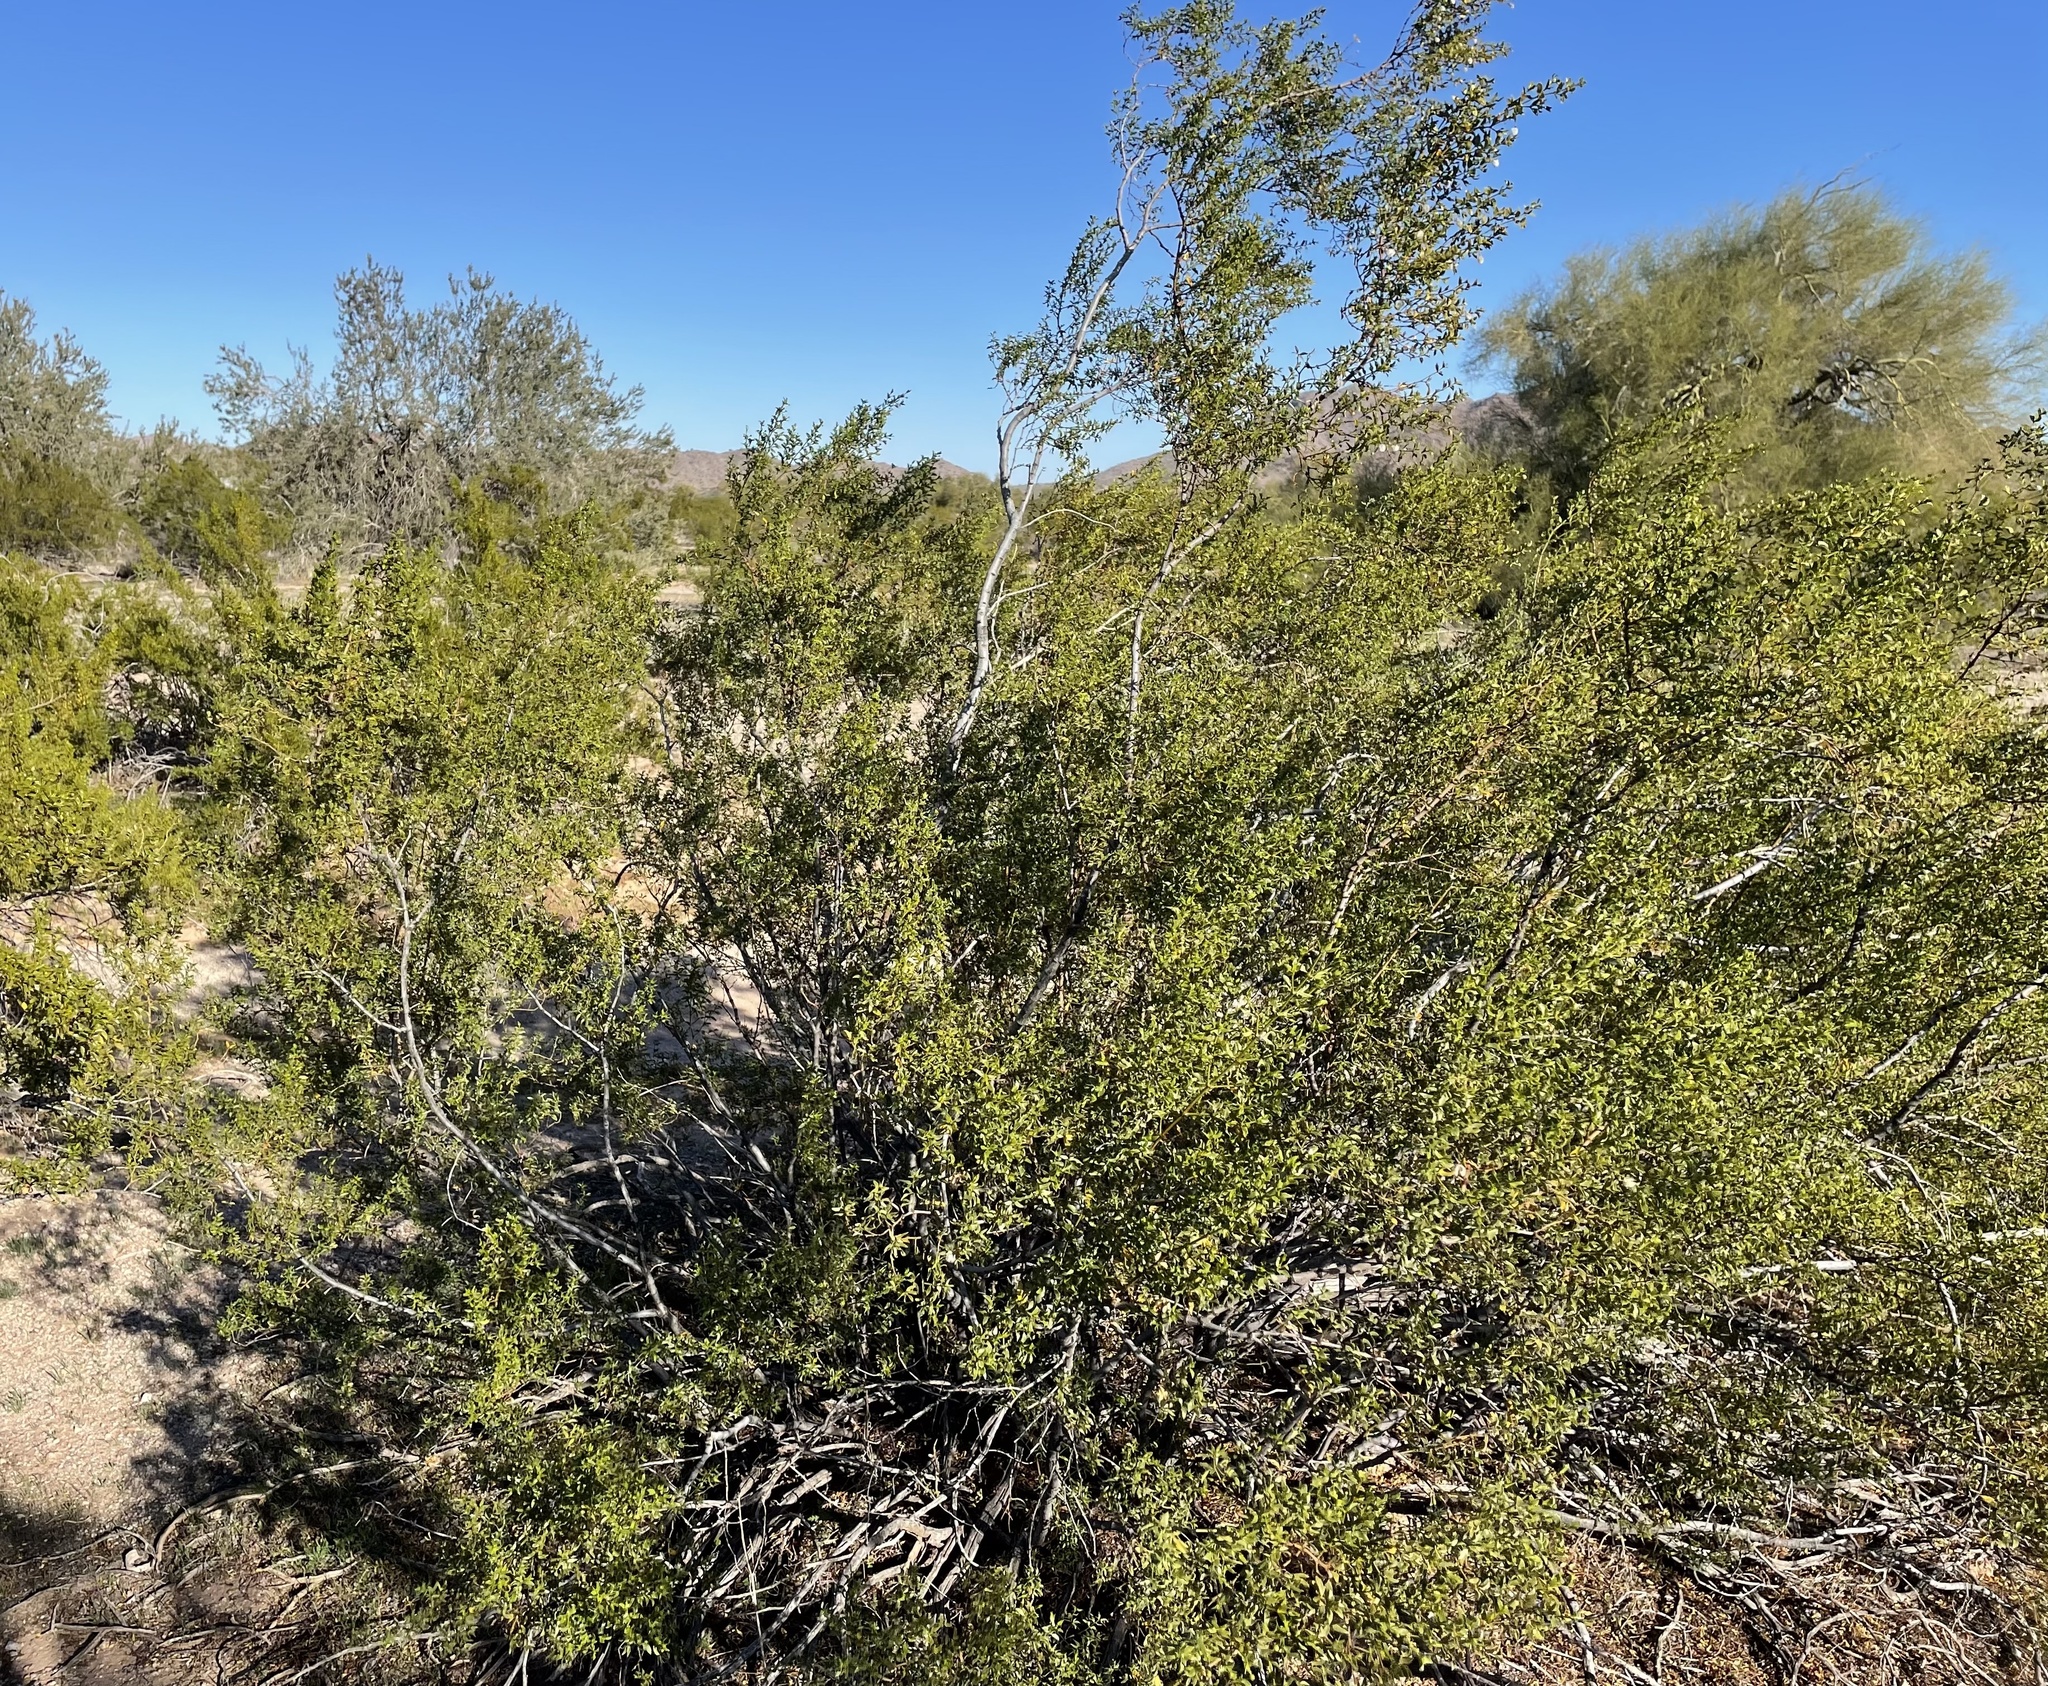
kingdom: Plantae
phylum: Tracheophyta
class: Magnoliopsida
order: Zygophyllales
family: Zygophyllaceae
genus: Larrea
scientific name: Larrea tridentata
